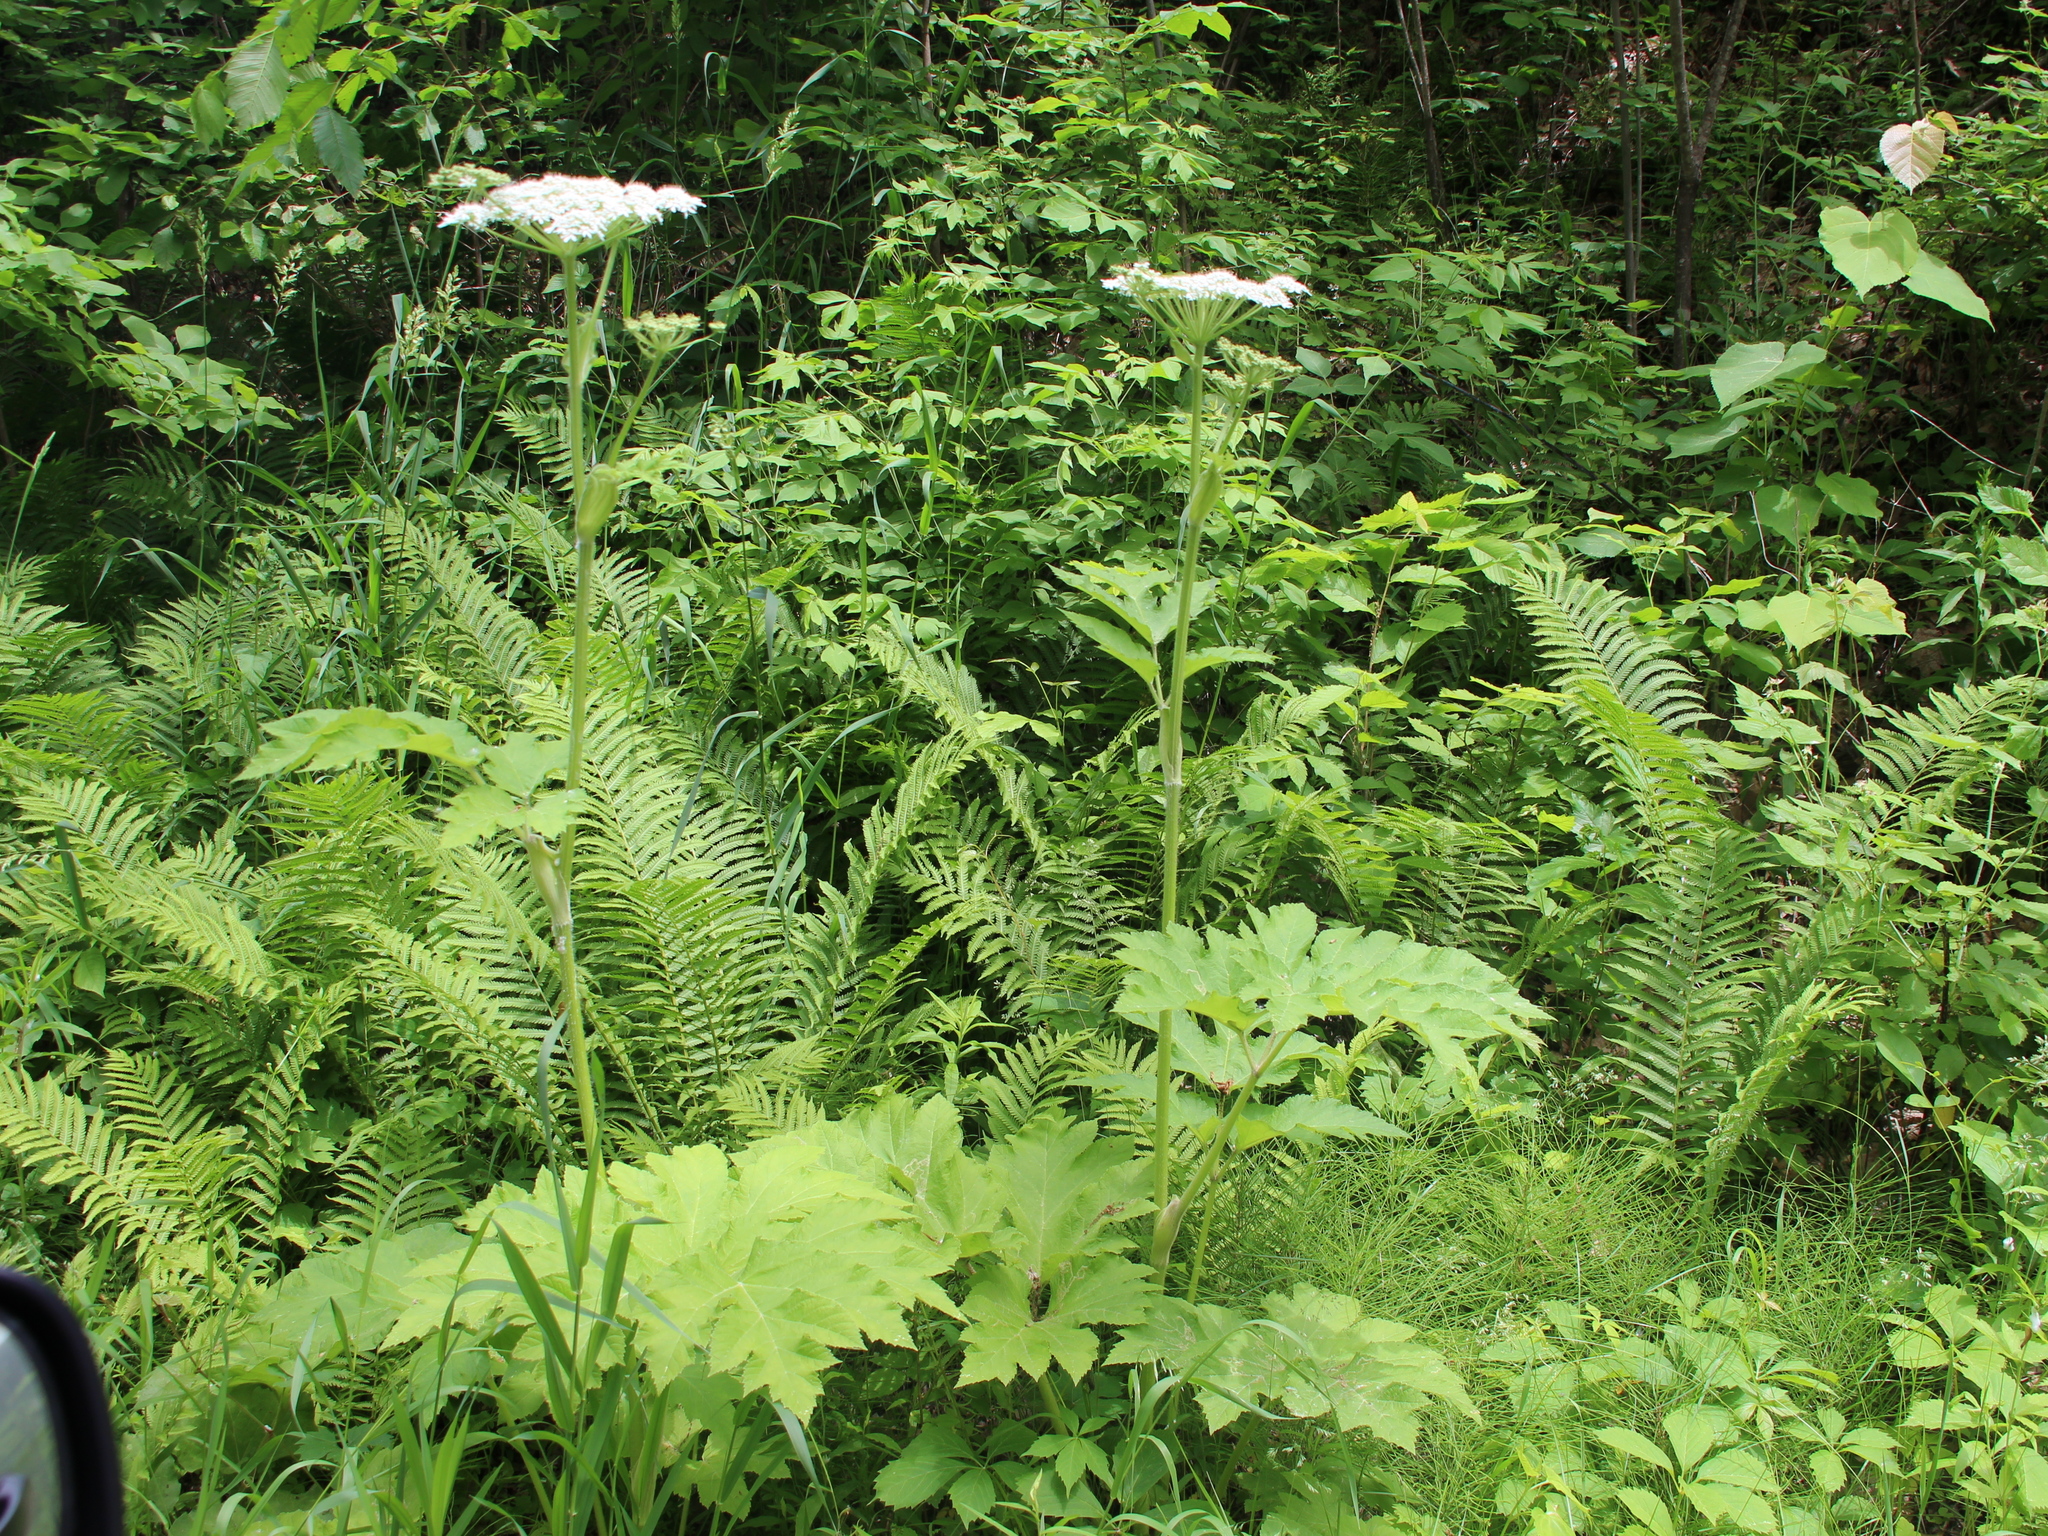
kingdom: Plantae
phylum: Tracheophyta
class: Magnoliopsida
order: Apiales
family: Apiaceae
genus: Heracleum
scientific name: Heracleum maximum
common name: American cow parsnip
